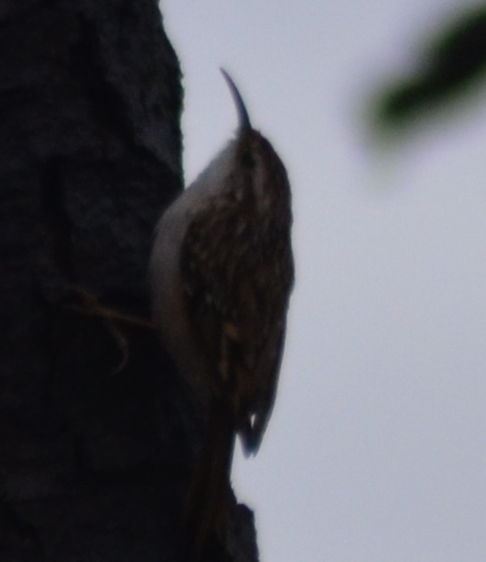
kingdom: Animalia
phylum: Chordata
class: Aves
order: Passeriformes
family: Certhiidae
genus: Certhia
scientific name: Certhia brachydactyla
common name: Short-toed treecreeper
